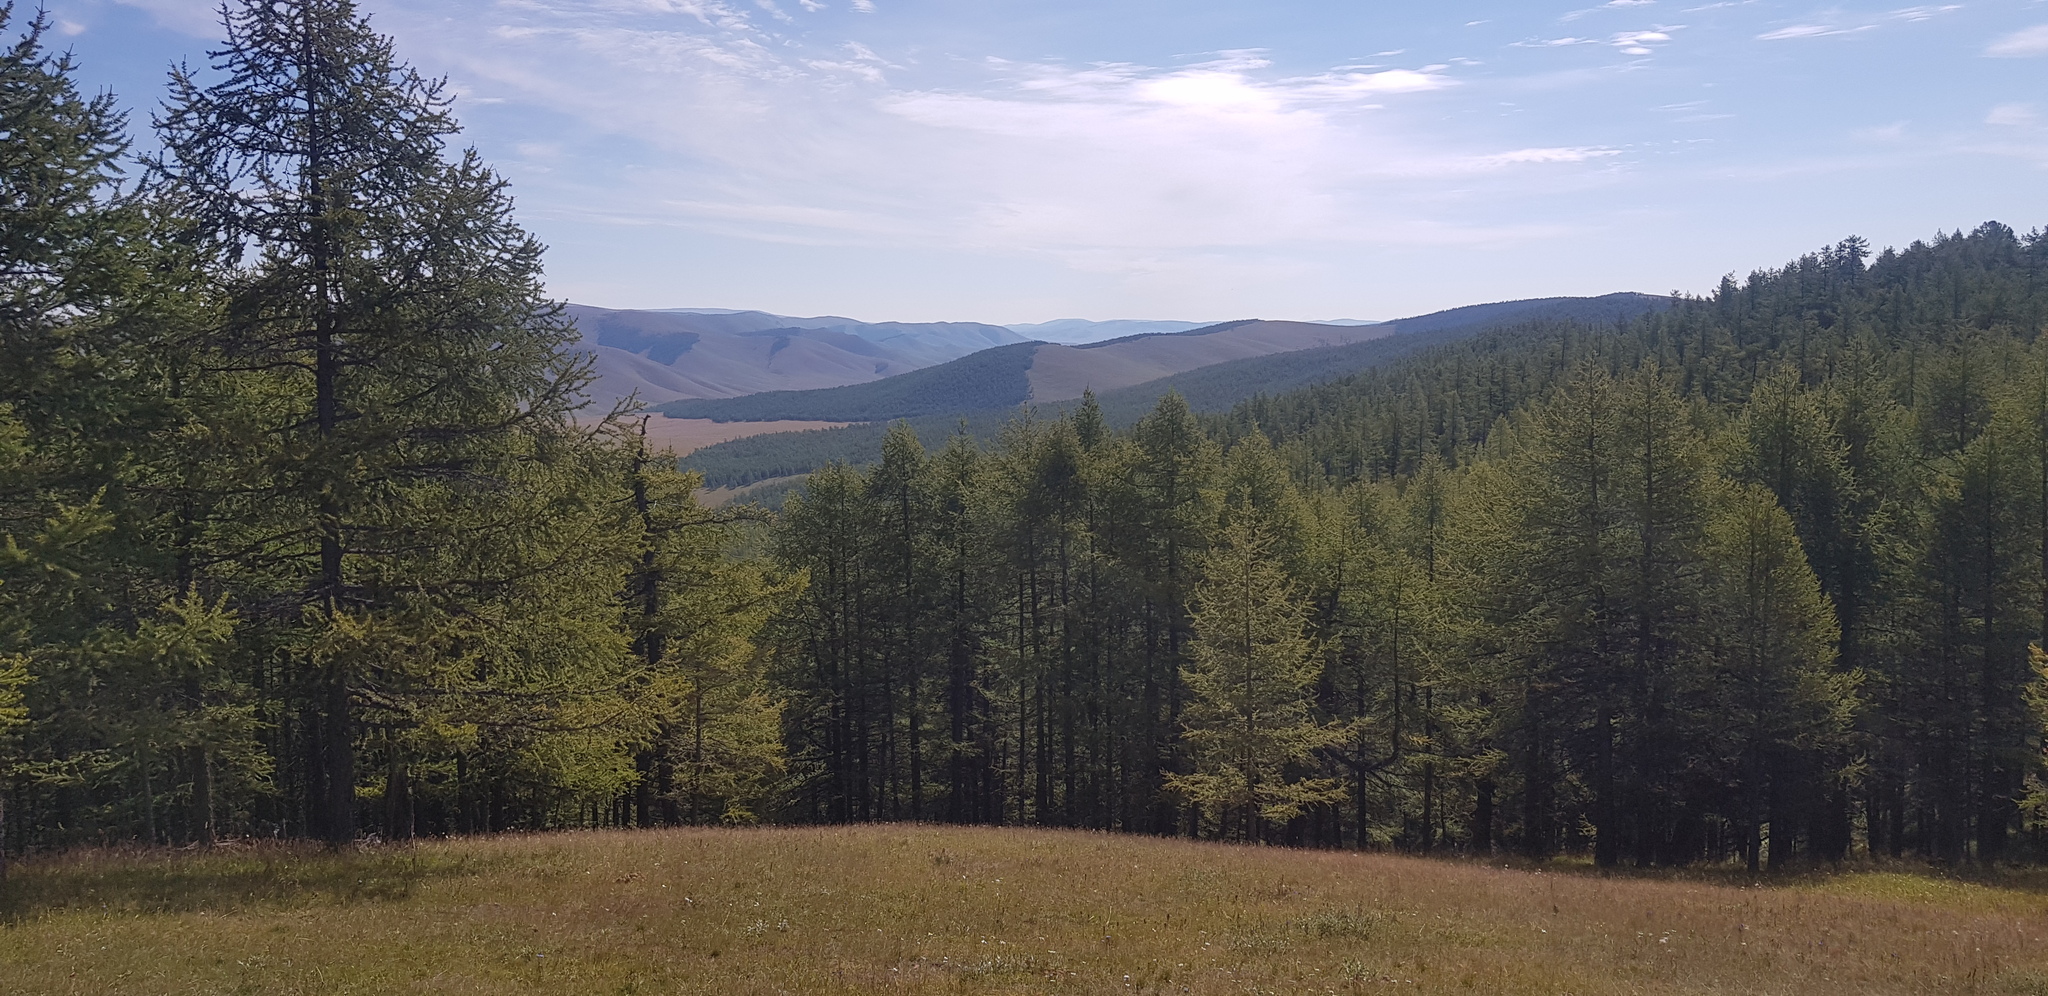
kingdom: Plantae
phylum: Tracheophyta
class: Pinopsida
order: Pinales
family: Pinaceae
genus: Larix
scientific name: Larix sibirica
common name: Siberian larch
